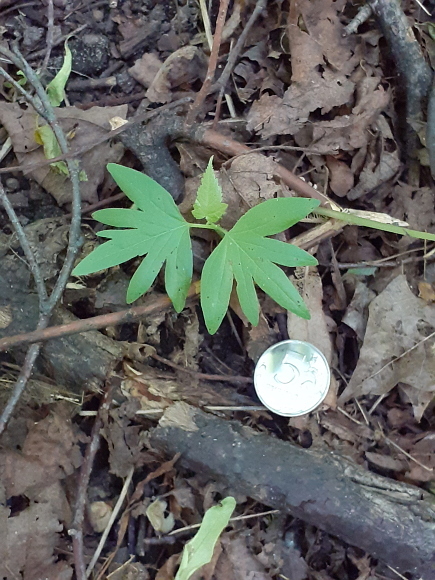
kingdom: Plantae
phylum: Tracheophyta
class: Magnoliopsida
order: Malvales
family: Malvaceae
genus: Tilia
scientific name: Tilia cordata
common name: Small-leaved lime
